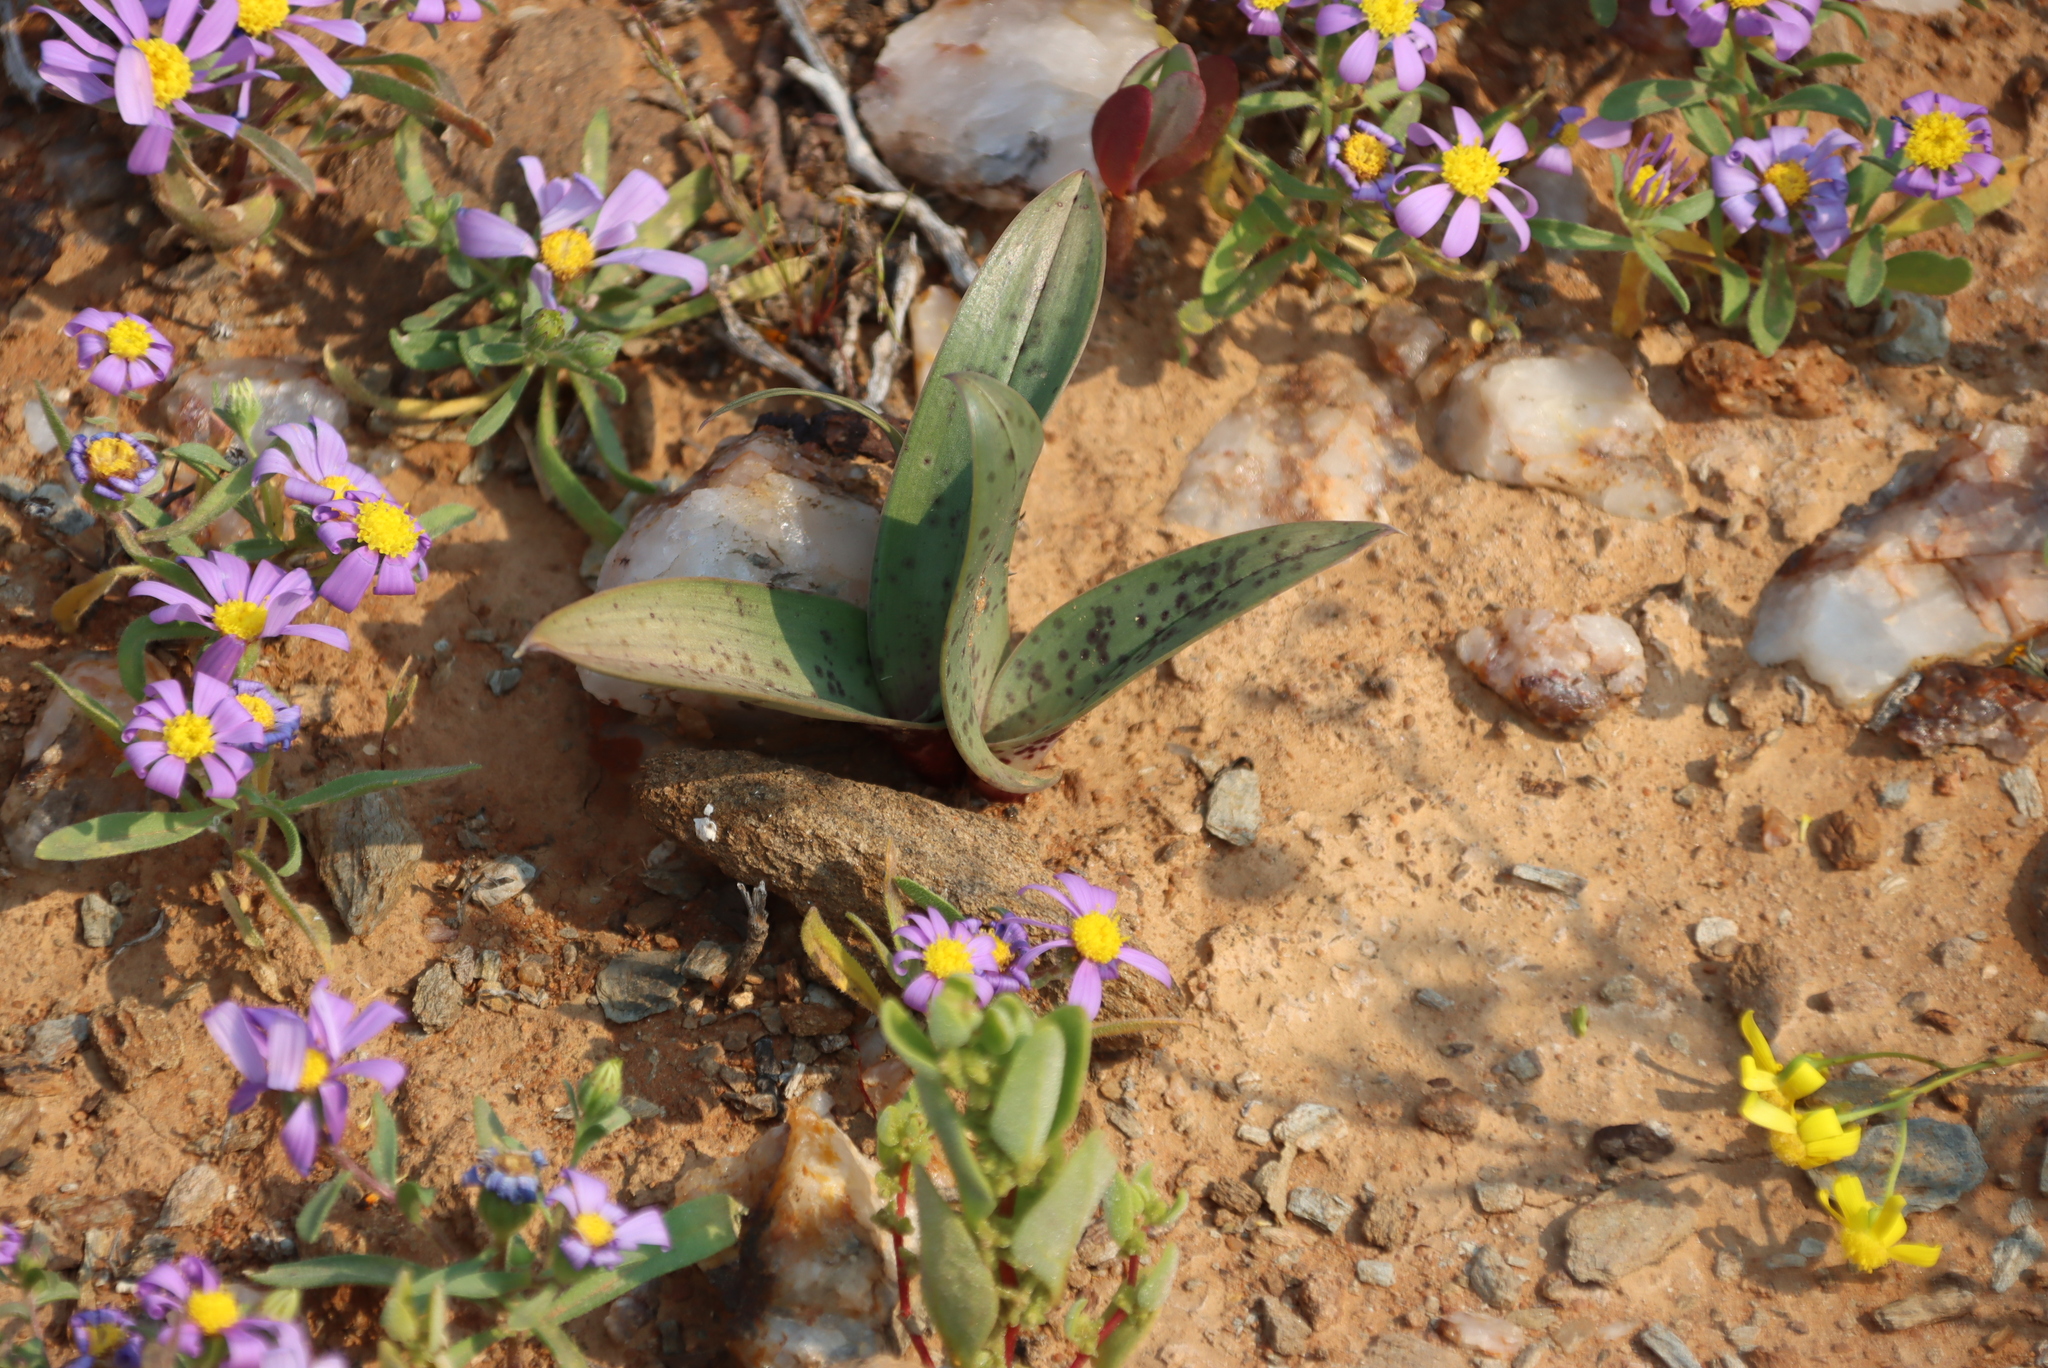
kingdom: Plantae
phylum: Tracheophyta
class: Liliopsida
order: Liliales
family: Colchicaceae
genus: Colchicum
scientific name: Colchicum vanjaarsveldii
